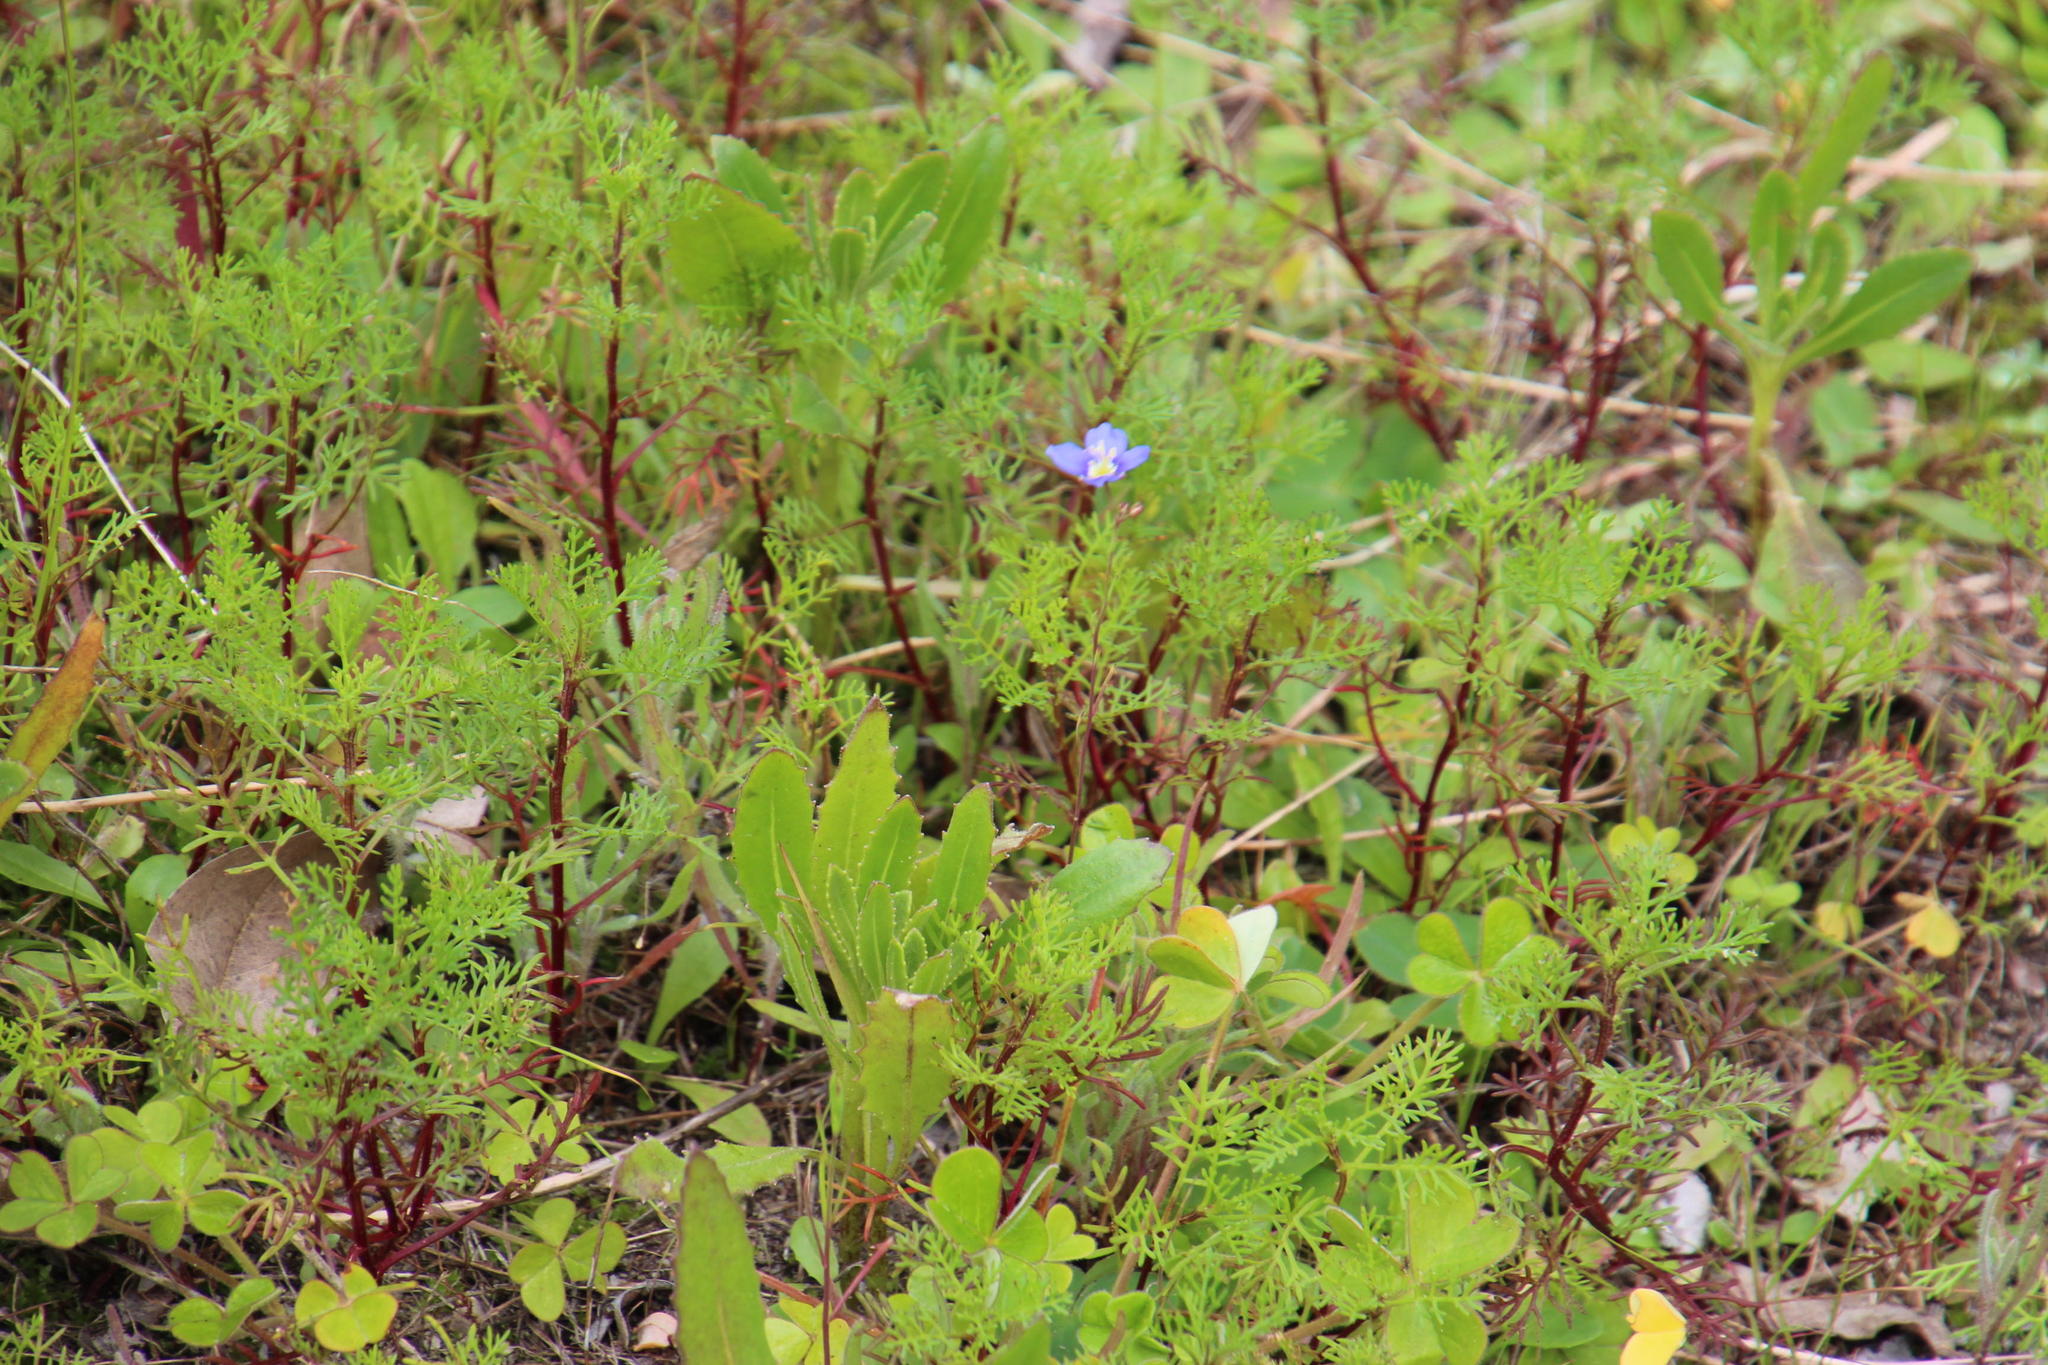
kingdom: Plantae
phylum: Tracheophyta
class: Magnoliopsida
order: Brassicales
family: Brassicaceae
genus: Heliophila
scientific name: Heliophila coronopifolia
